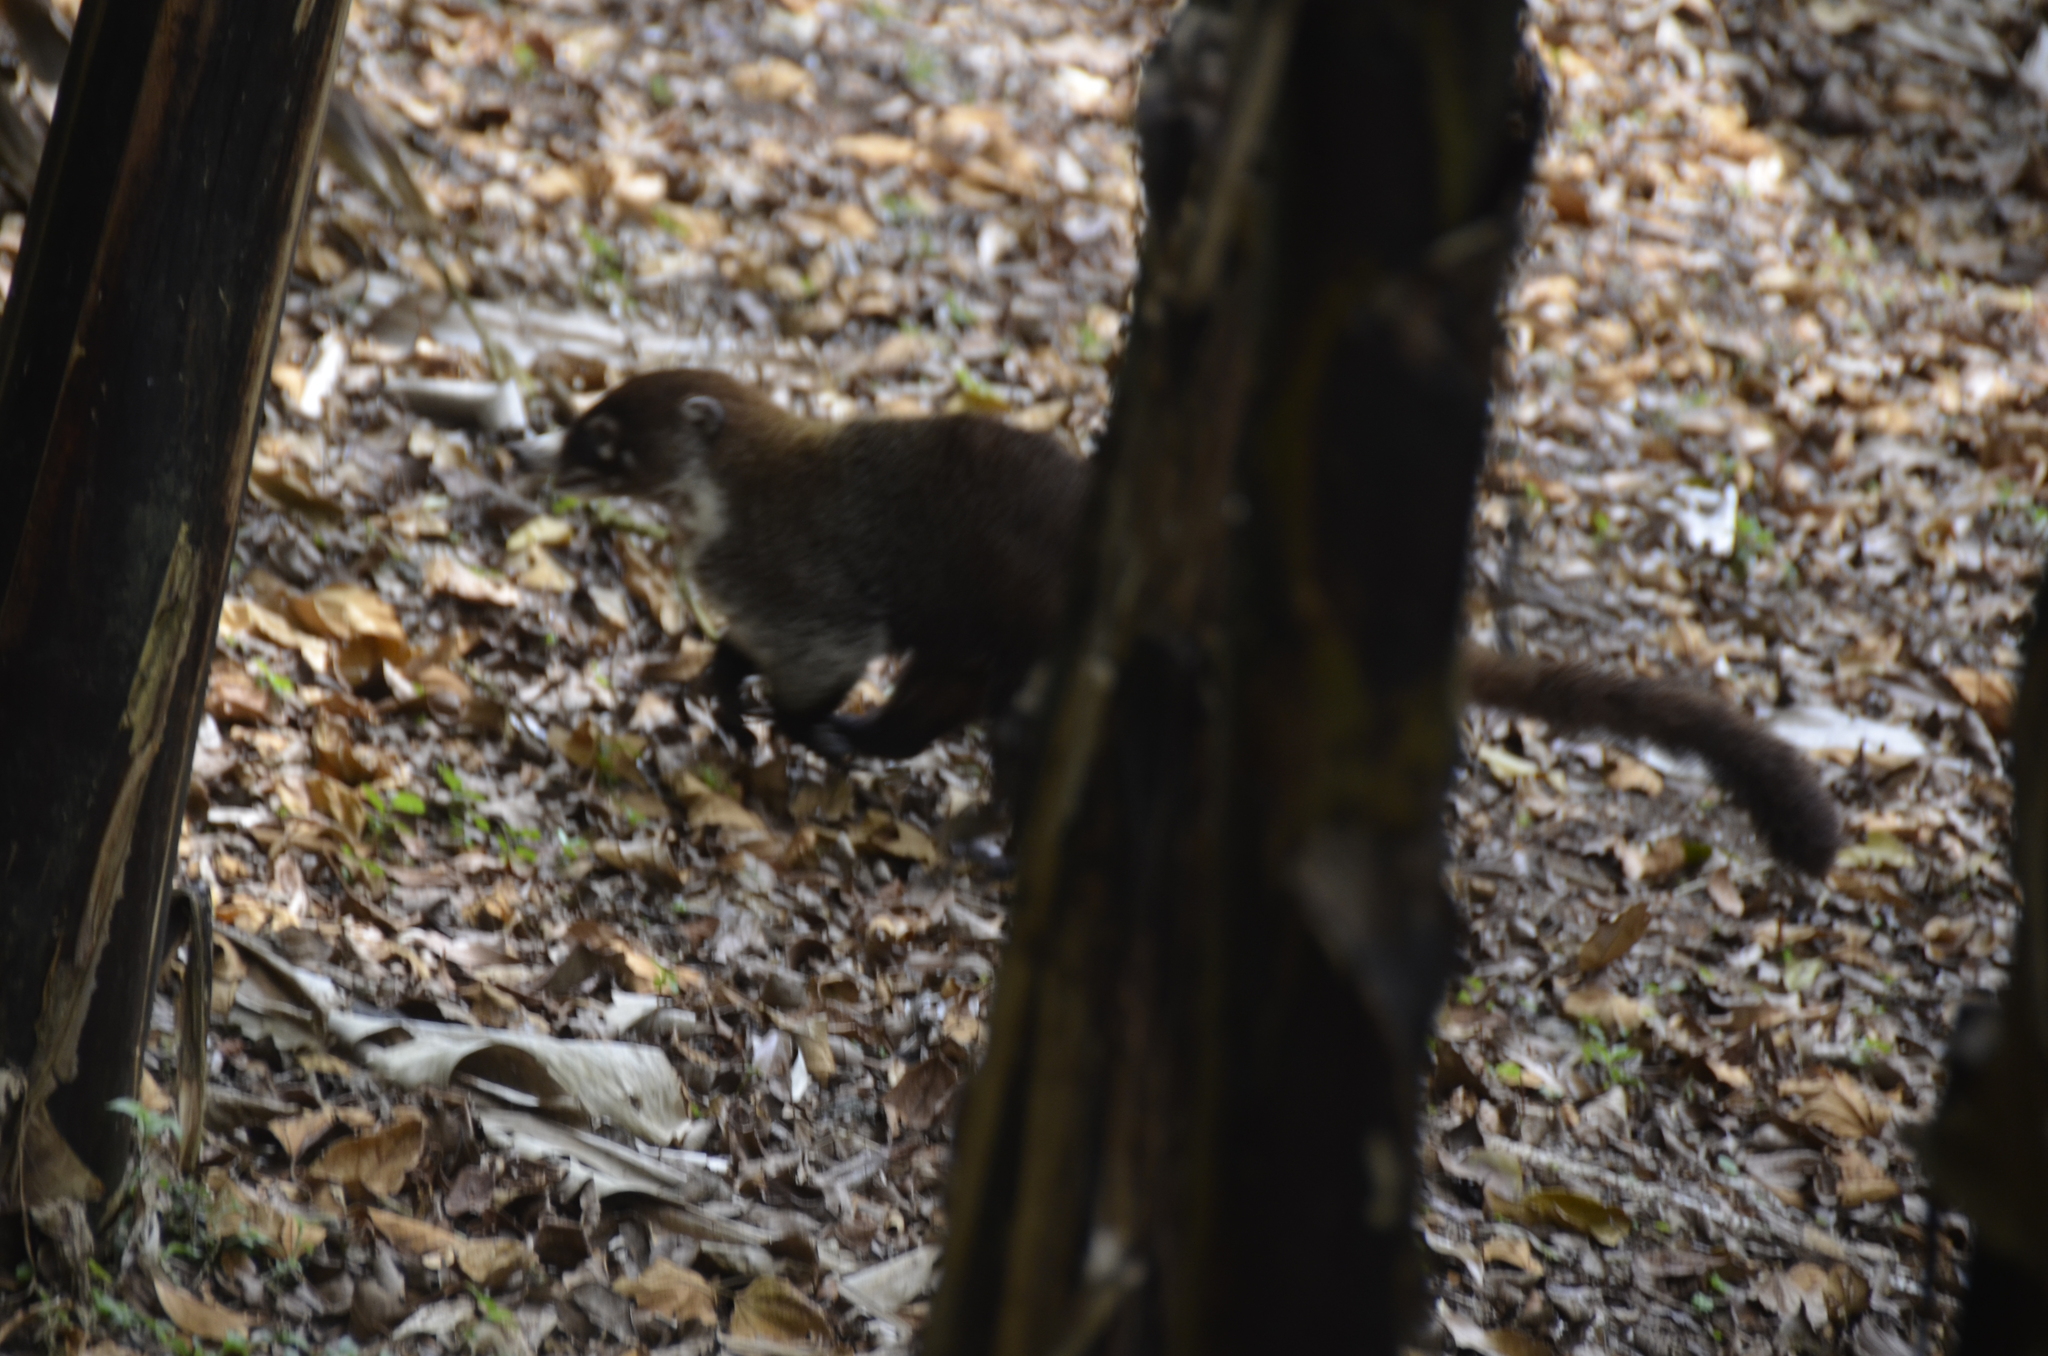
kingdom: Animalia
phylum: Chordata
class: Mammalia
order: Carnivora
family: Procyonidae
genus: Nasua
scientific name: Nasua narica
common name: White-nosed coati
